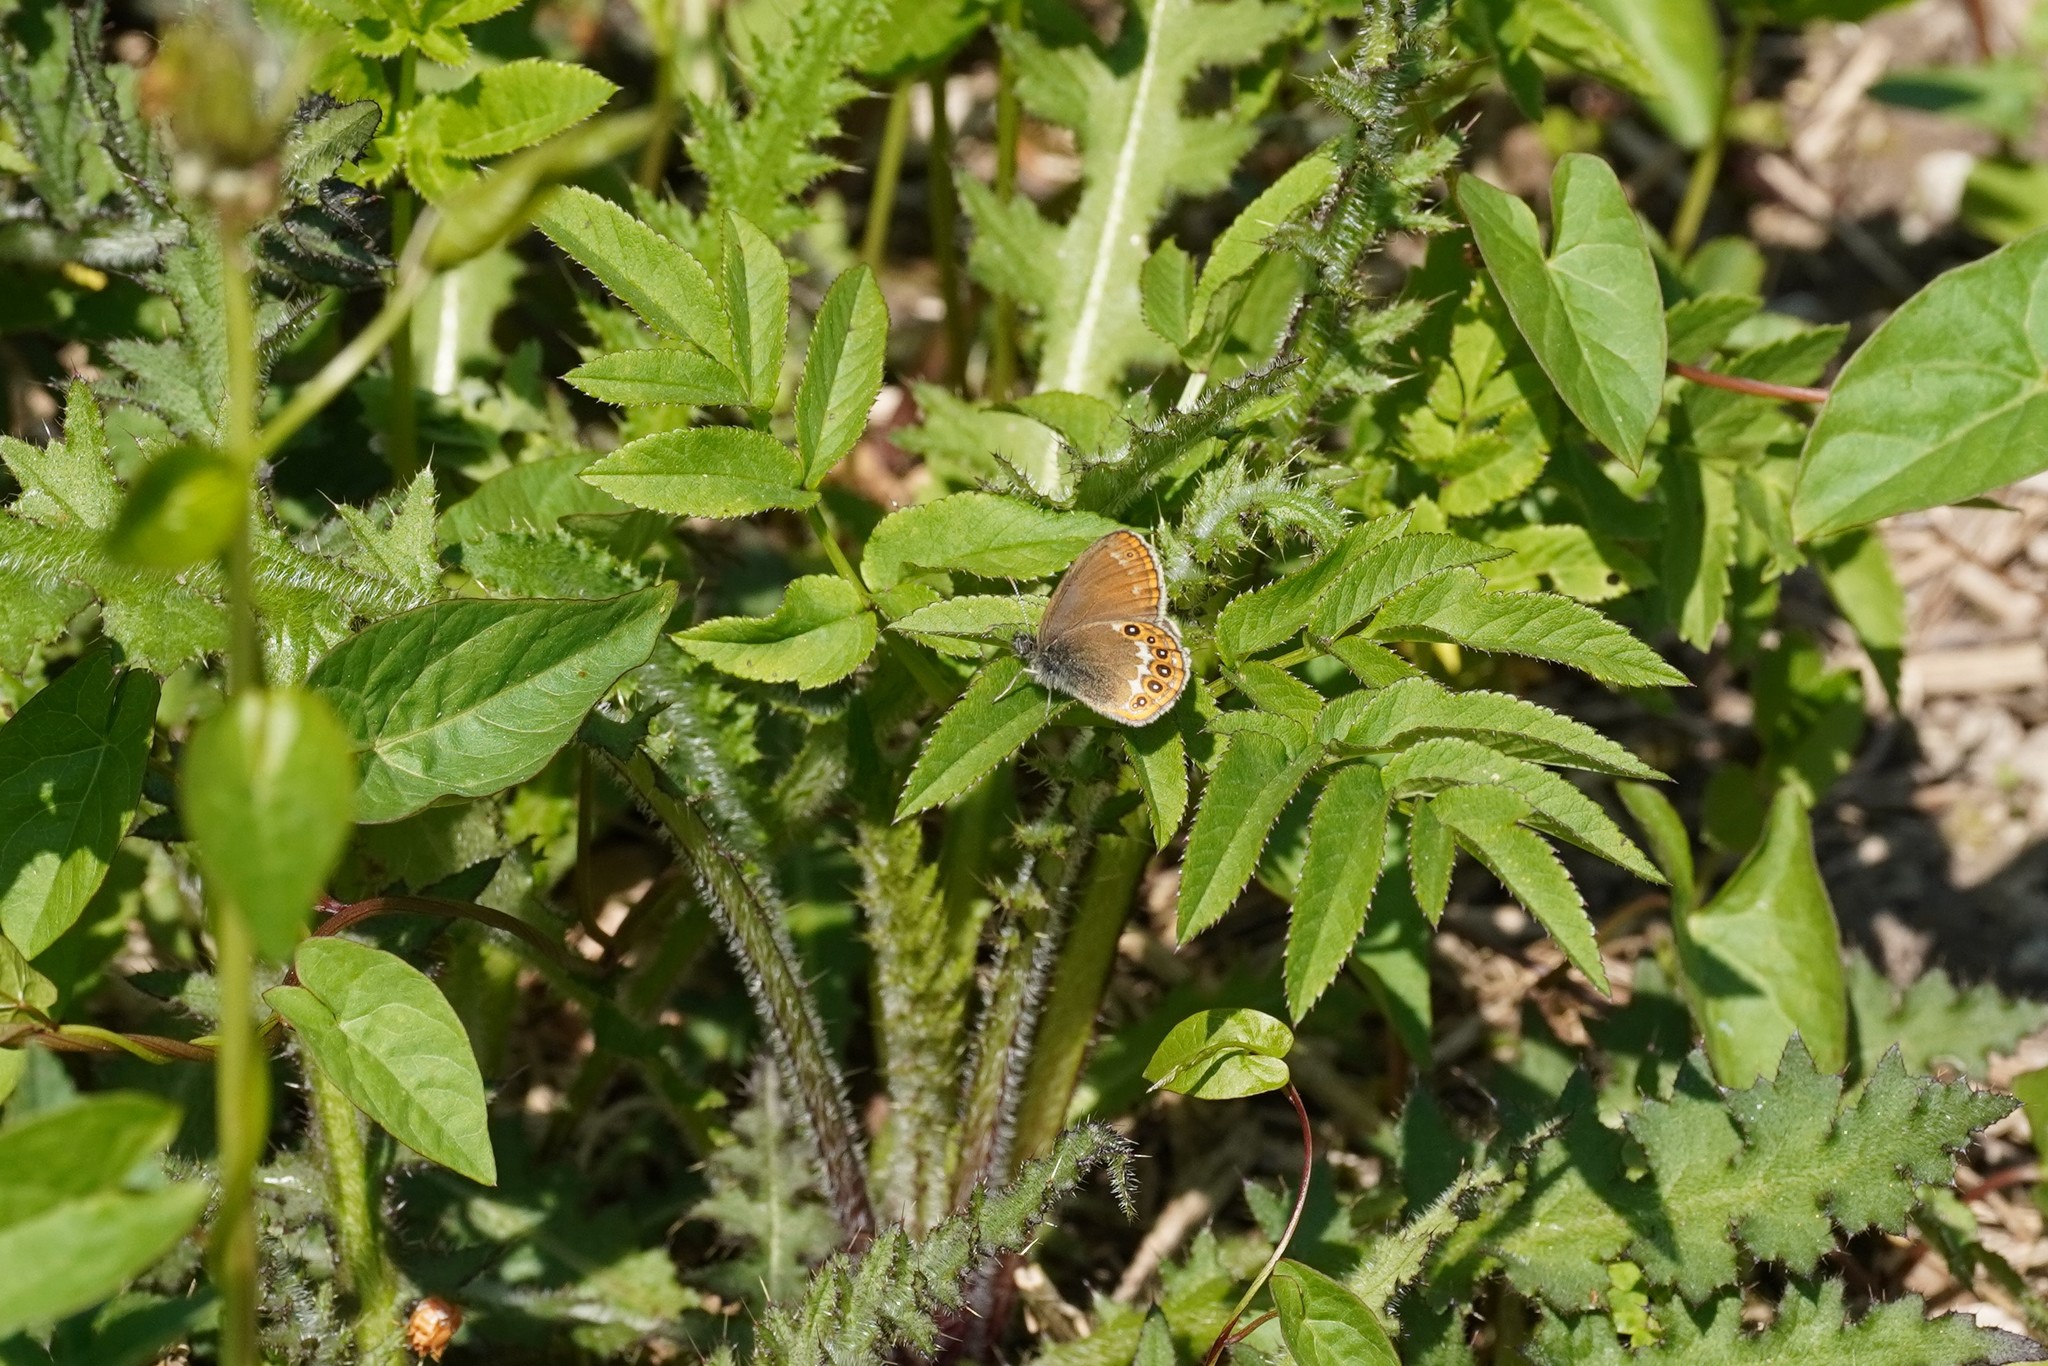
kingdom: Animalia
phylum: Arthropoda
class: Insecta
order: Lepidoptera
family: Nymphalidae
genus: Coenonympha
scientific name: Coenonympha hero
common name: Scarce heath
